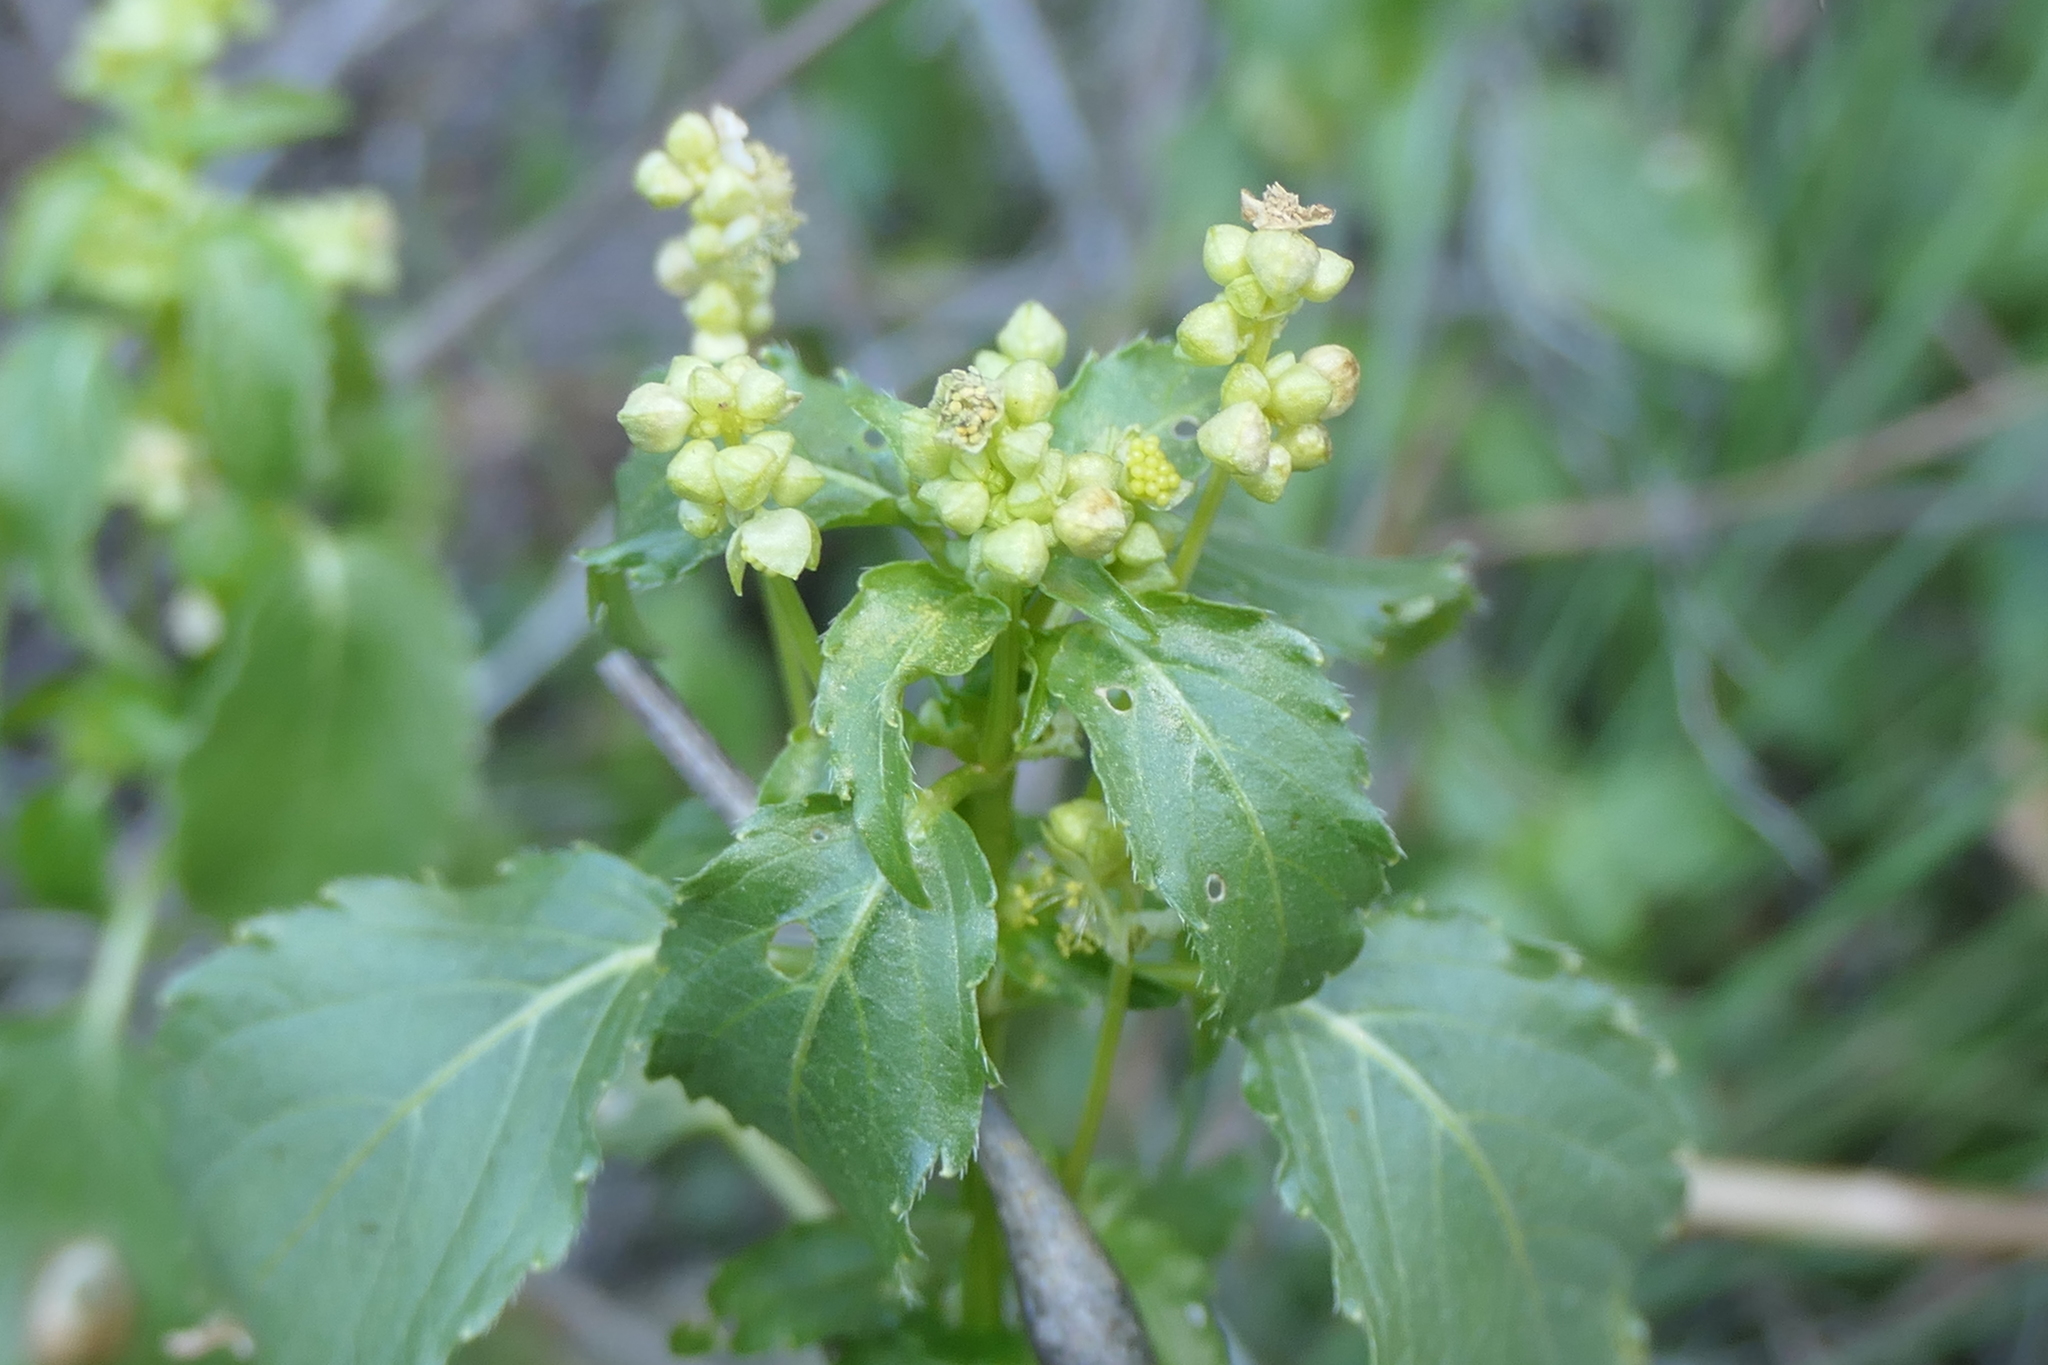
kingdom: Plantae
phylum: Tracheophyta
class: Magnoliopsida
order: Malpighiales
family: Euphorbiaceae
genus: Mercurialis
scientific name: Mercurialis annua
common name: Annual mercury
